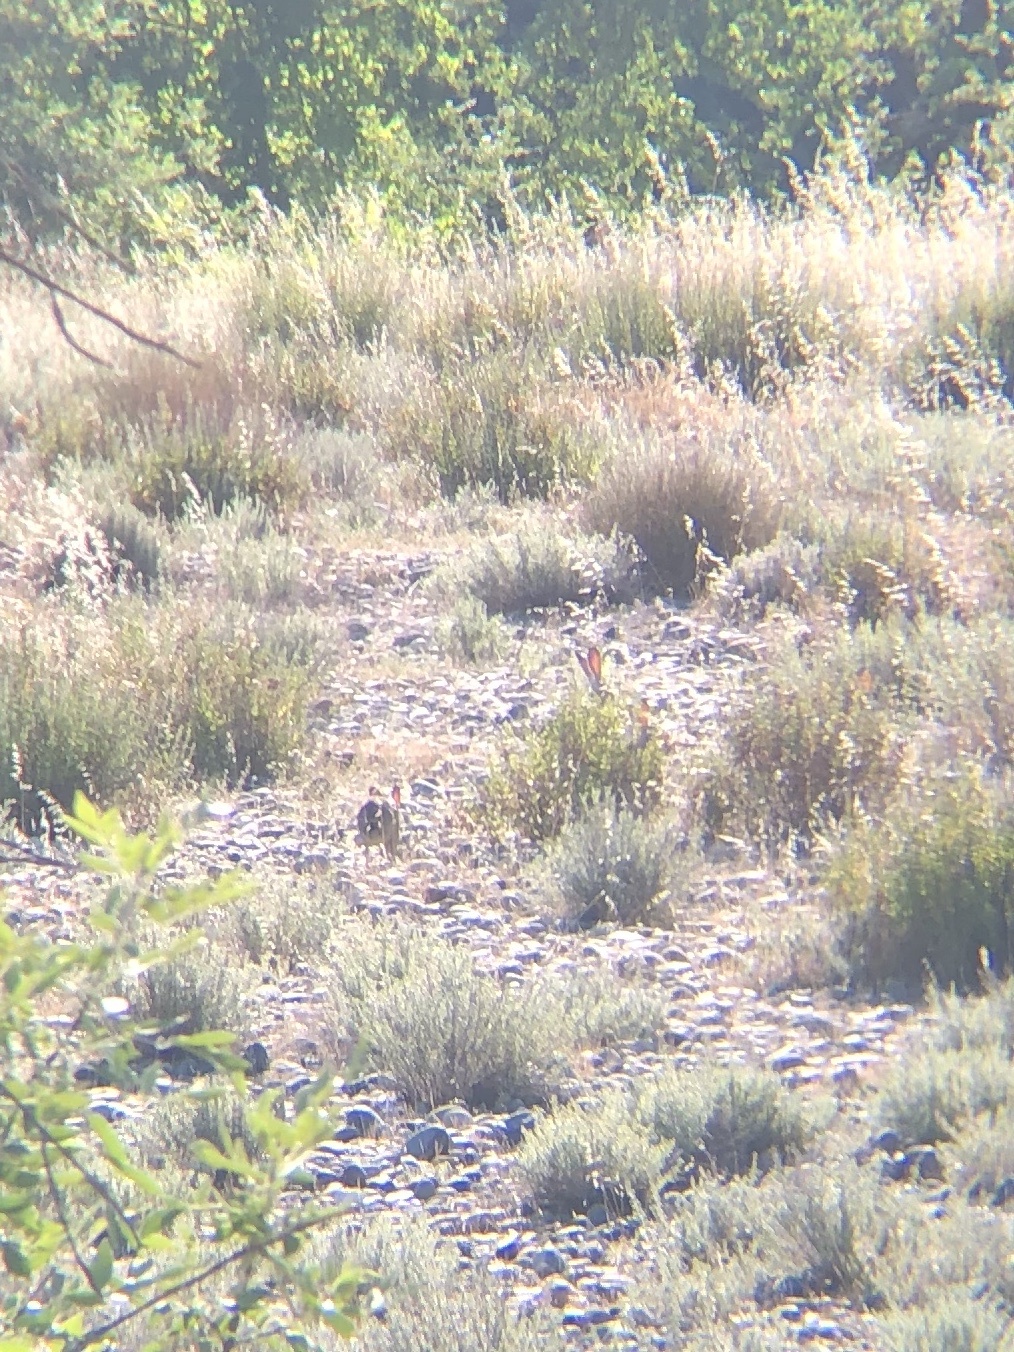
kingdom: Animalia
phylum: Chordata
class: Mammalia
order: Lagomorpha
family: Leporidae
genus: Lepus
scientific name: Lepus californicus
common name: Black-tailed jackrabbit
